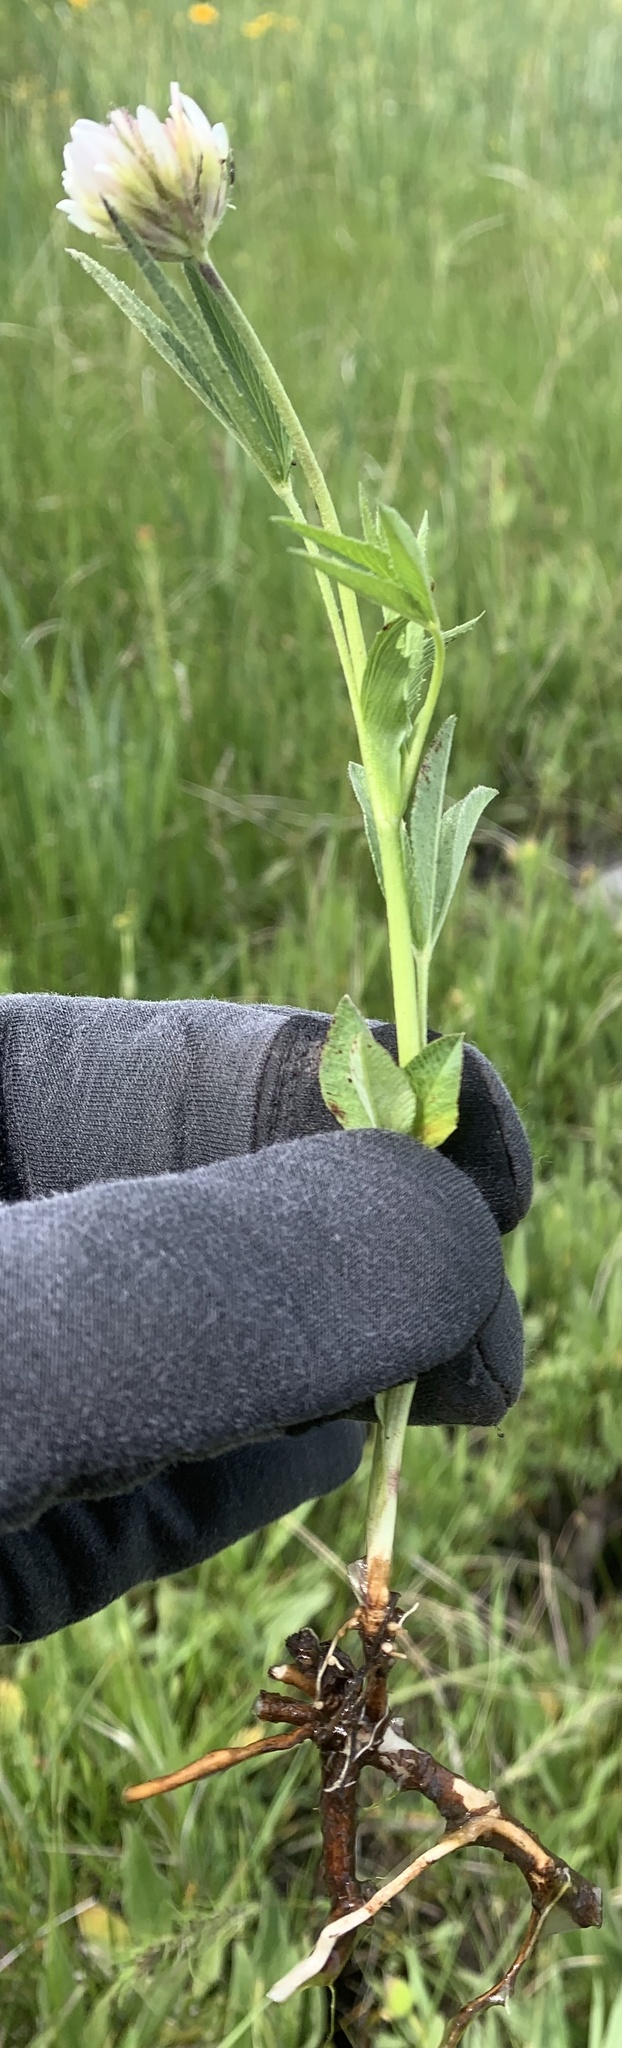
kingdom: Plantae
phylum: Tracheophyta
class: Magnoliopsida
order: Fabales
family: Fabaceae
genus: Trifolium
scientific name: Trifolium longipes
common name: Long-stalk clover
